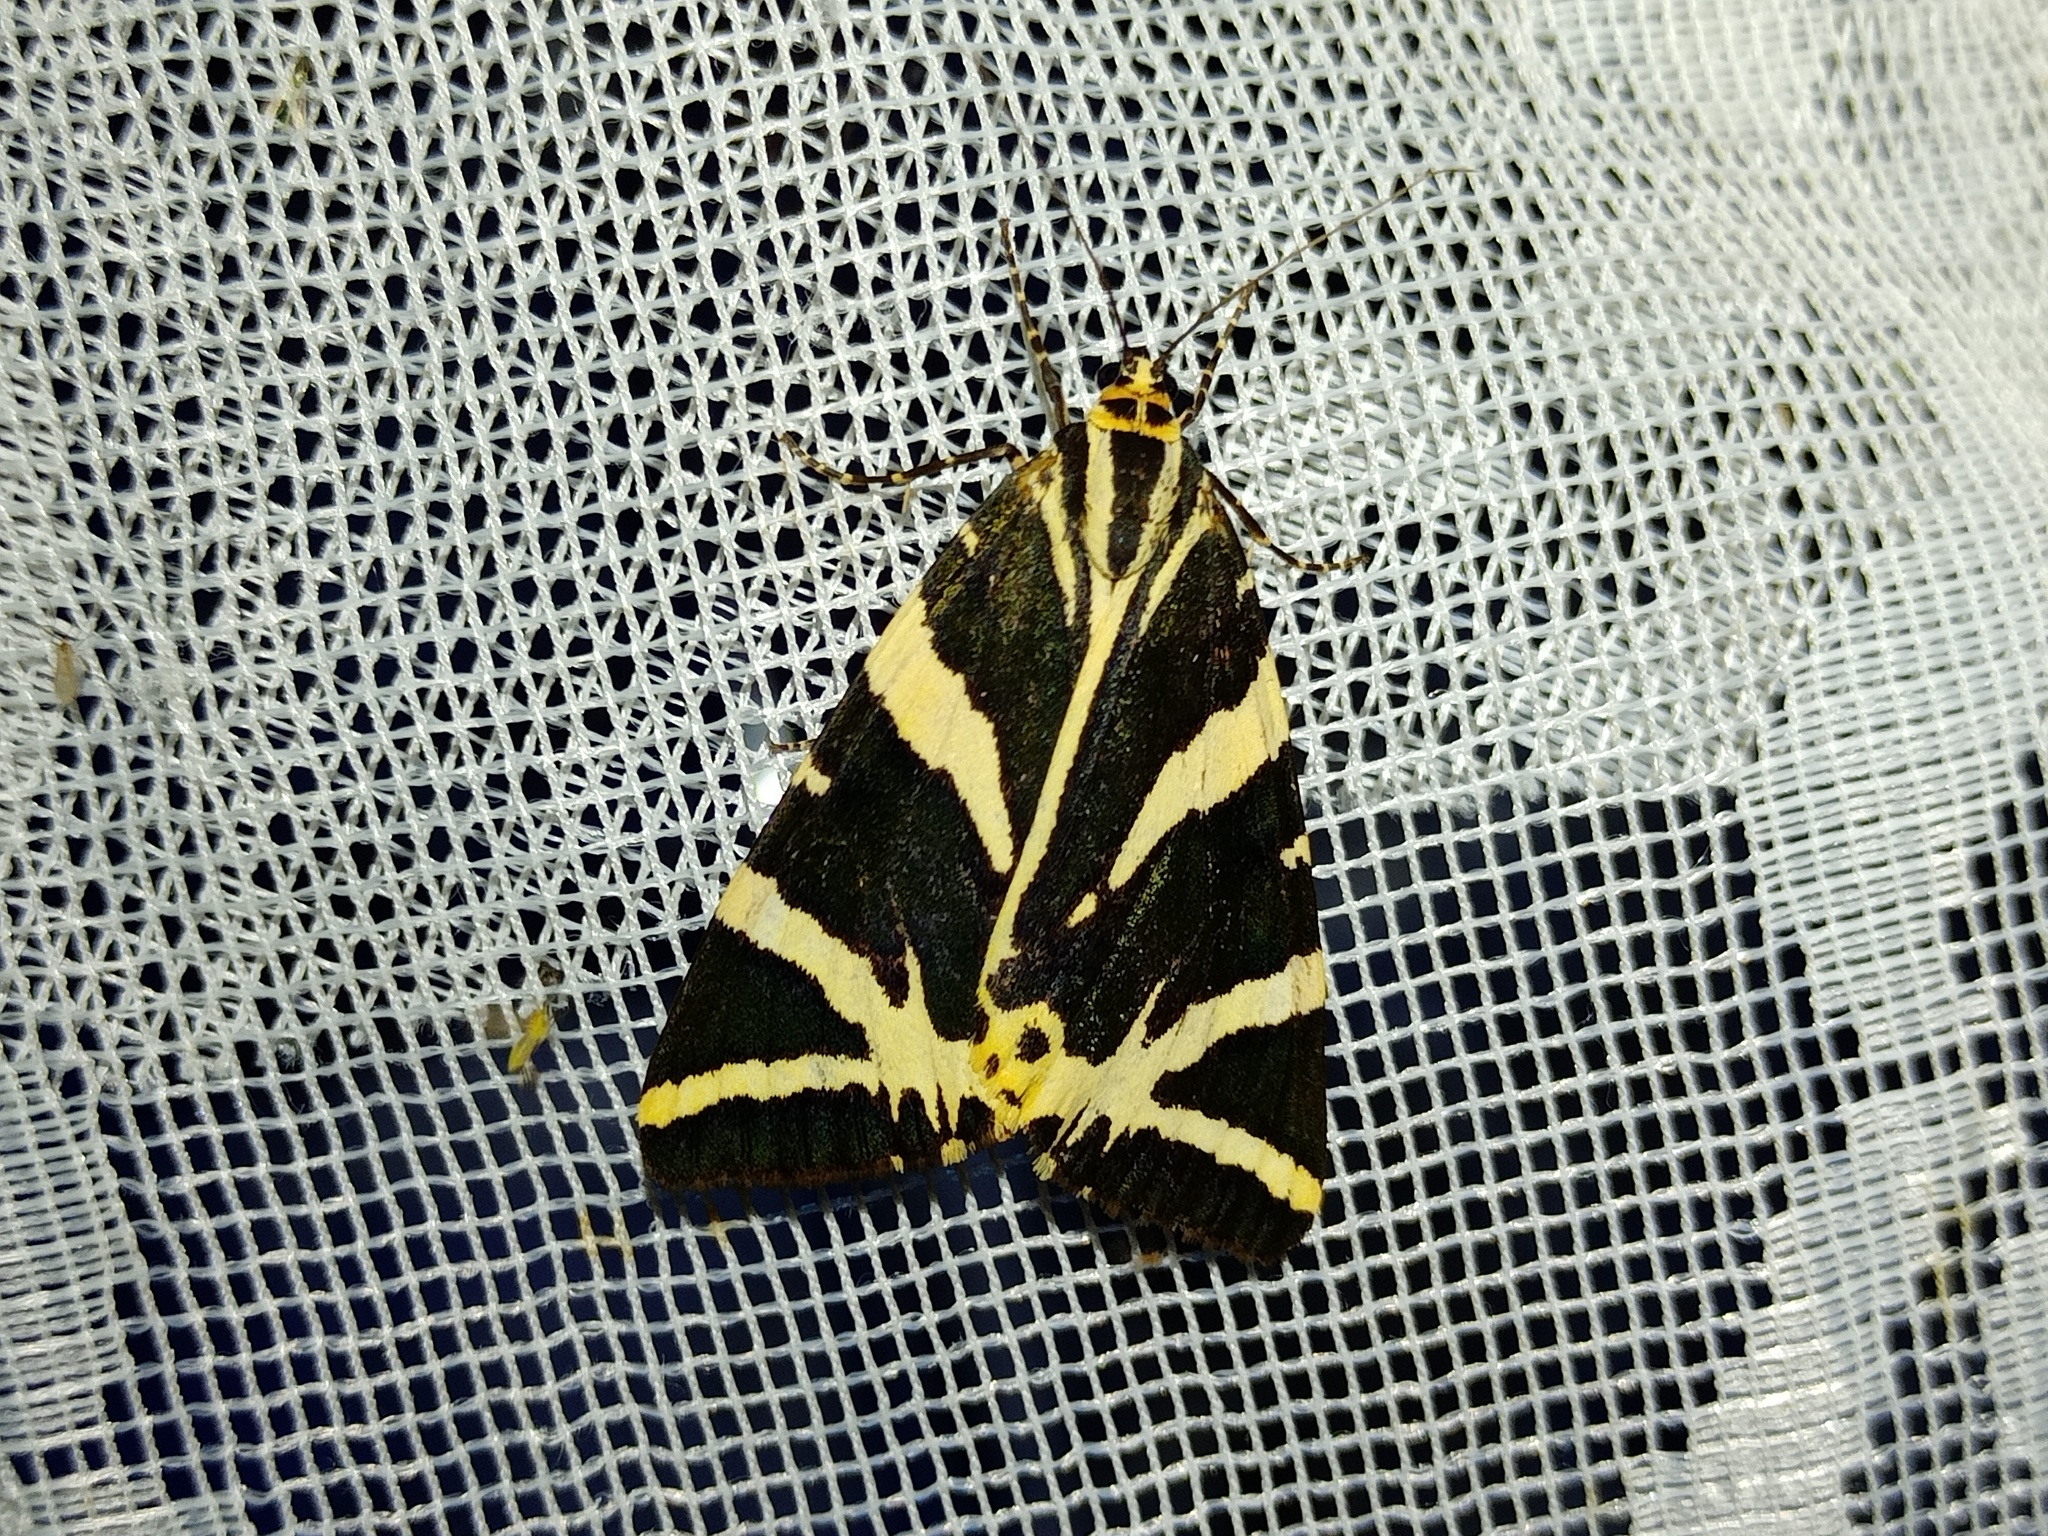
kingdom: Animalia
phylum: Arthropoda
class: Insecta
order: Lepidoptera
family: Erebidae
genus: Euplagia
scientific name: Euplagia quadripunctaria
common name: Jersey tiger
